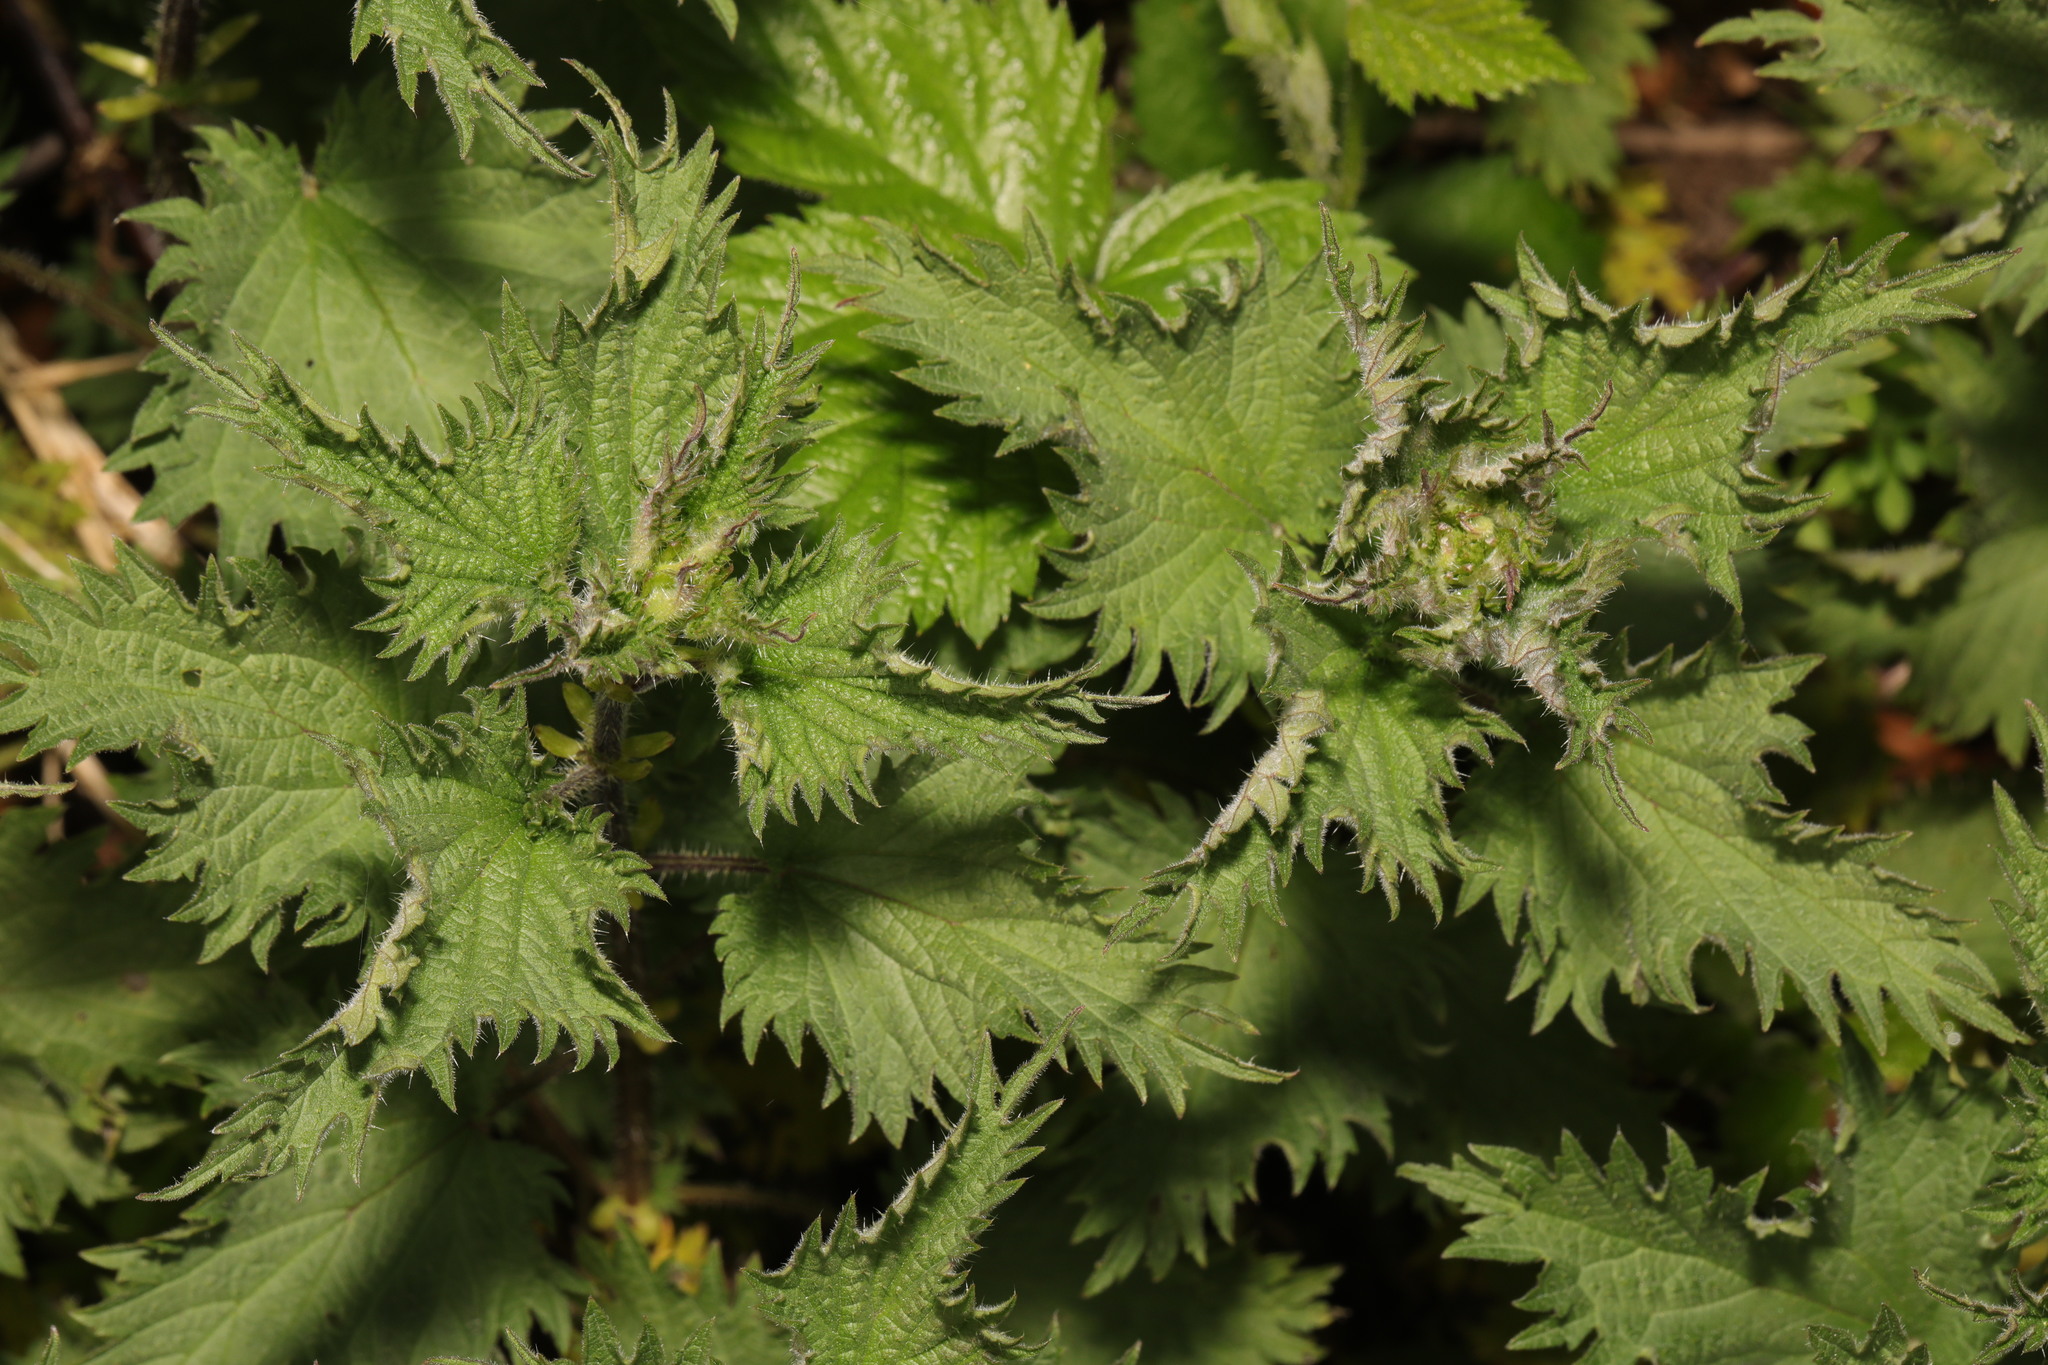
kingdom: Plantae
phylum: Tracheophyta
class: Magnoliopsida
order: Rosales
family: Urticaceae
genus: Urtica
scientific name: Urtica dioica
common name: Common nettle
